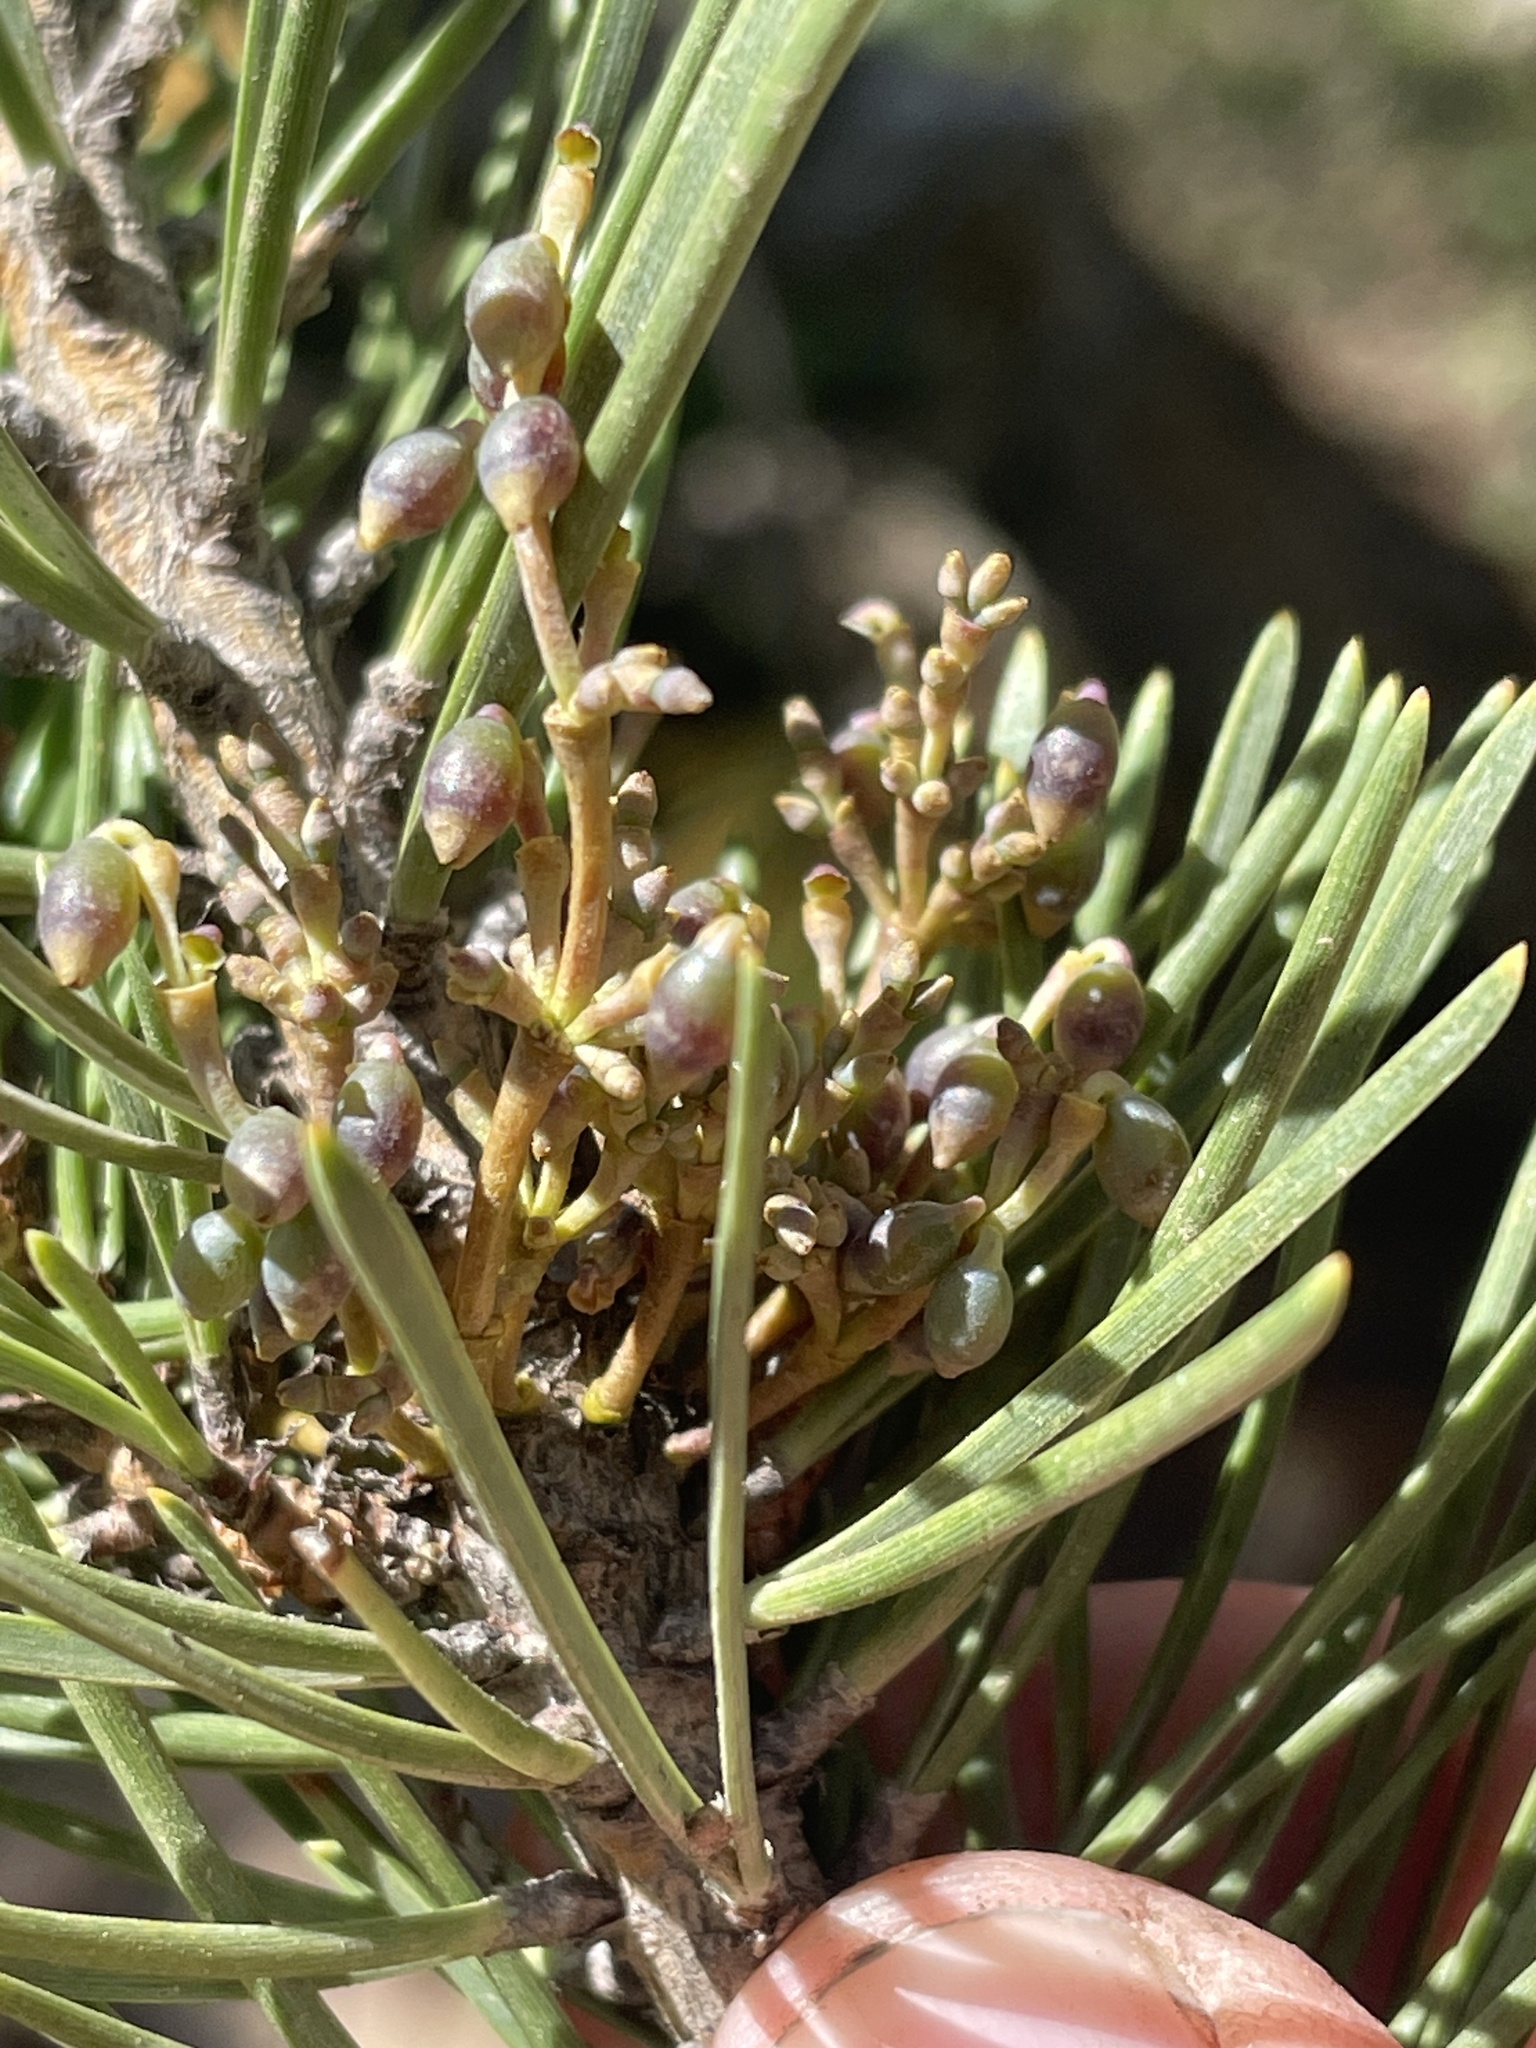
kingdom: Plantae
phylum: Tracheophyta
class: Magnoliopsida
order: Santalales
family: Viscaceae
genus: Arceuthobium
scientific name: Arceuthobium americanum
